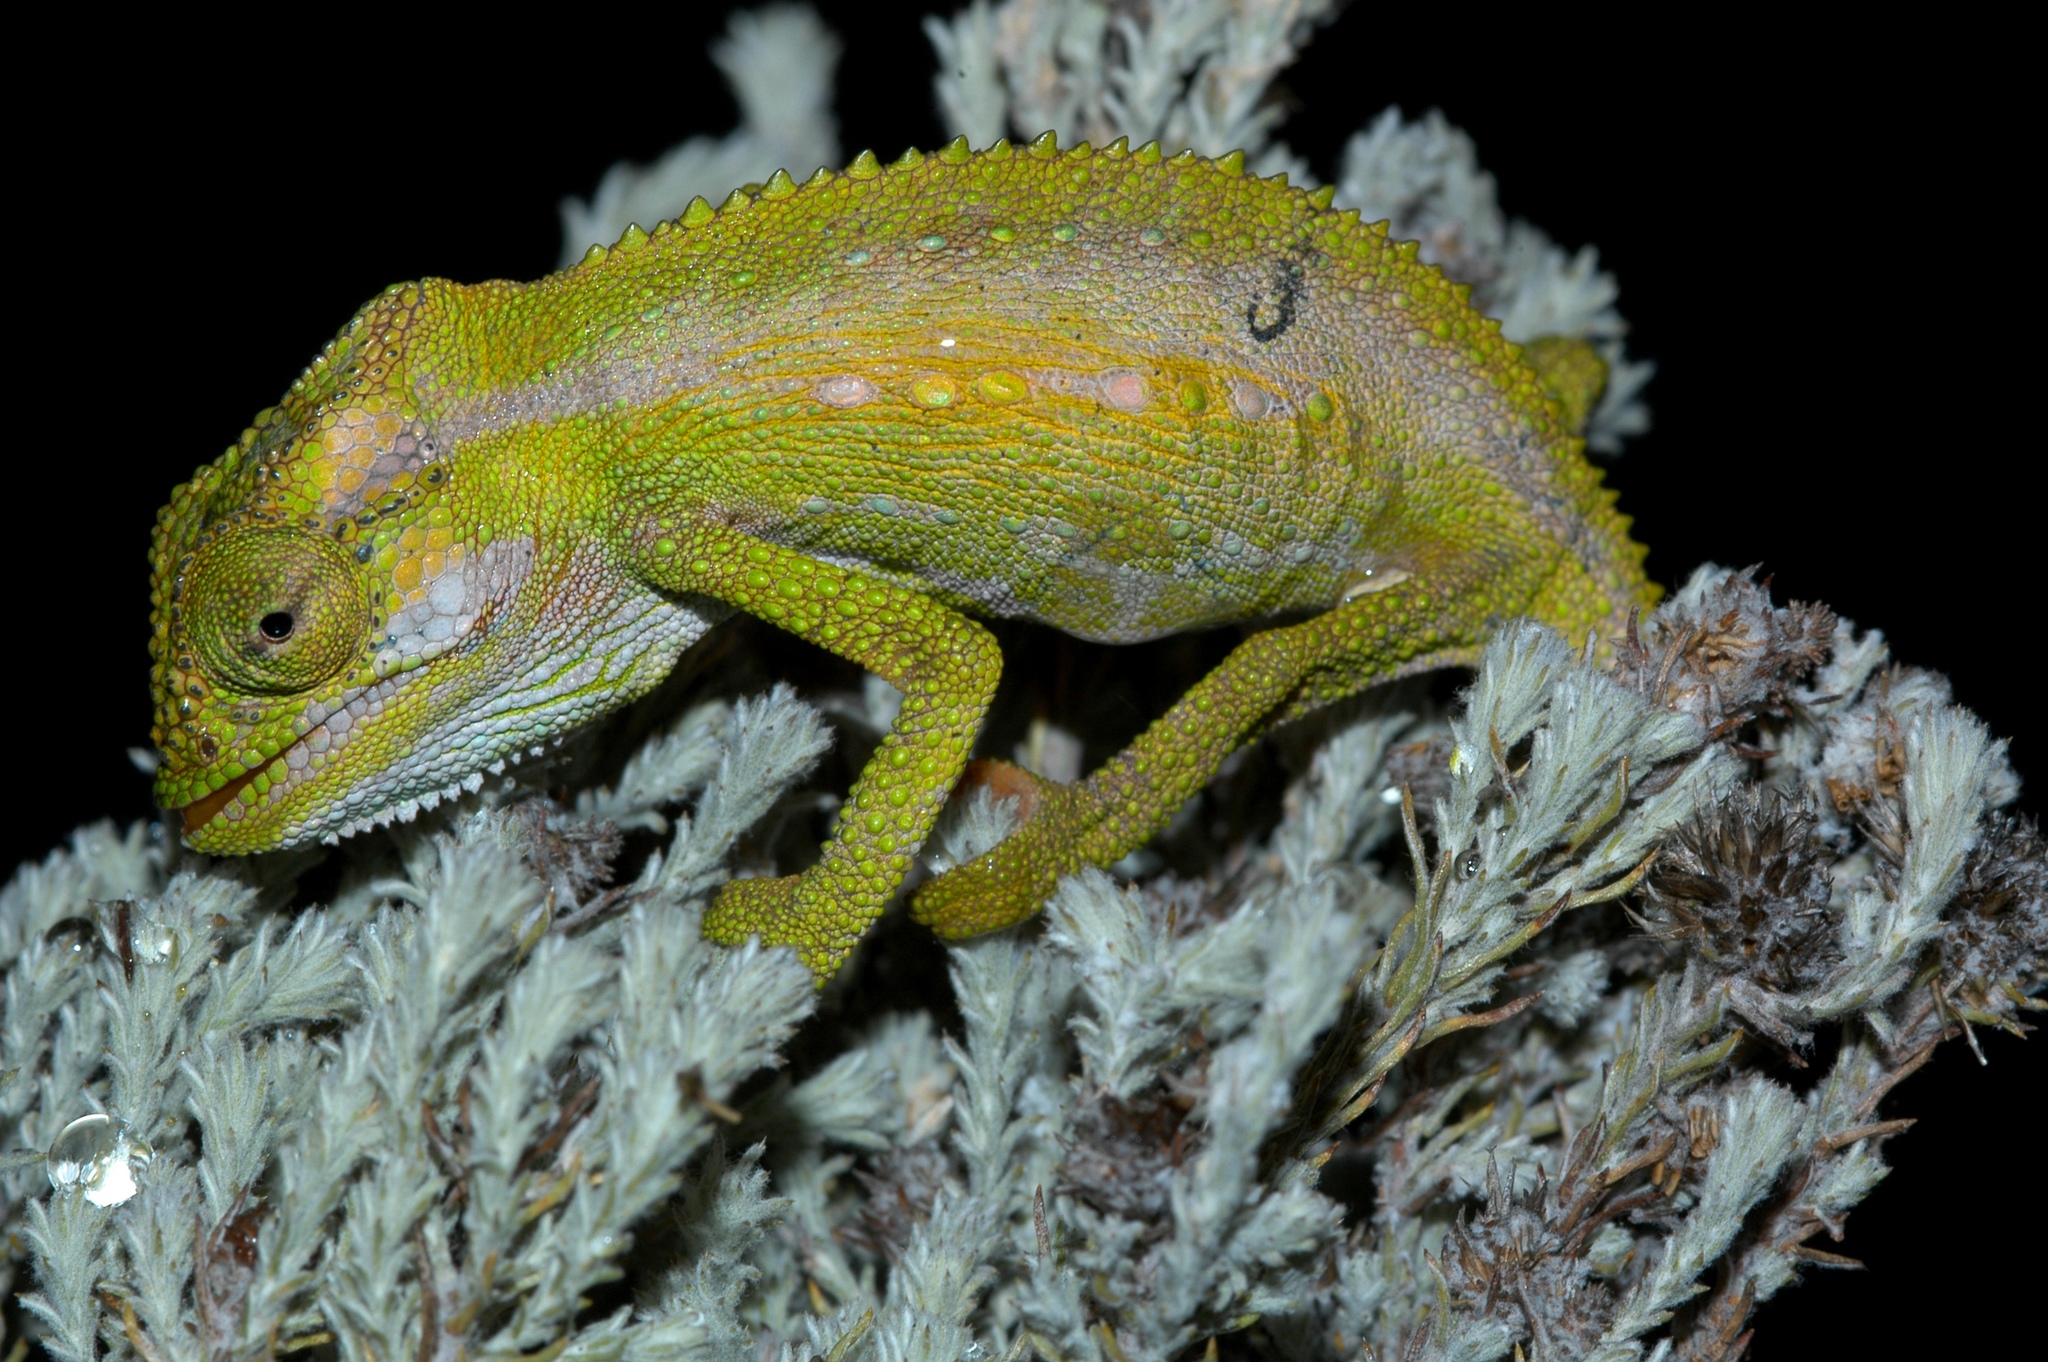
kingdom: Animalia
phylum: Chordata
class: Squamata
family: Chamaeleonidae
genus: Bradypodion
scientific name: Bradypodion pumilum
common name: Cape dwarf chameleon
